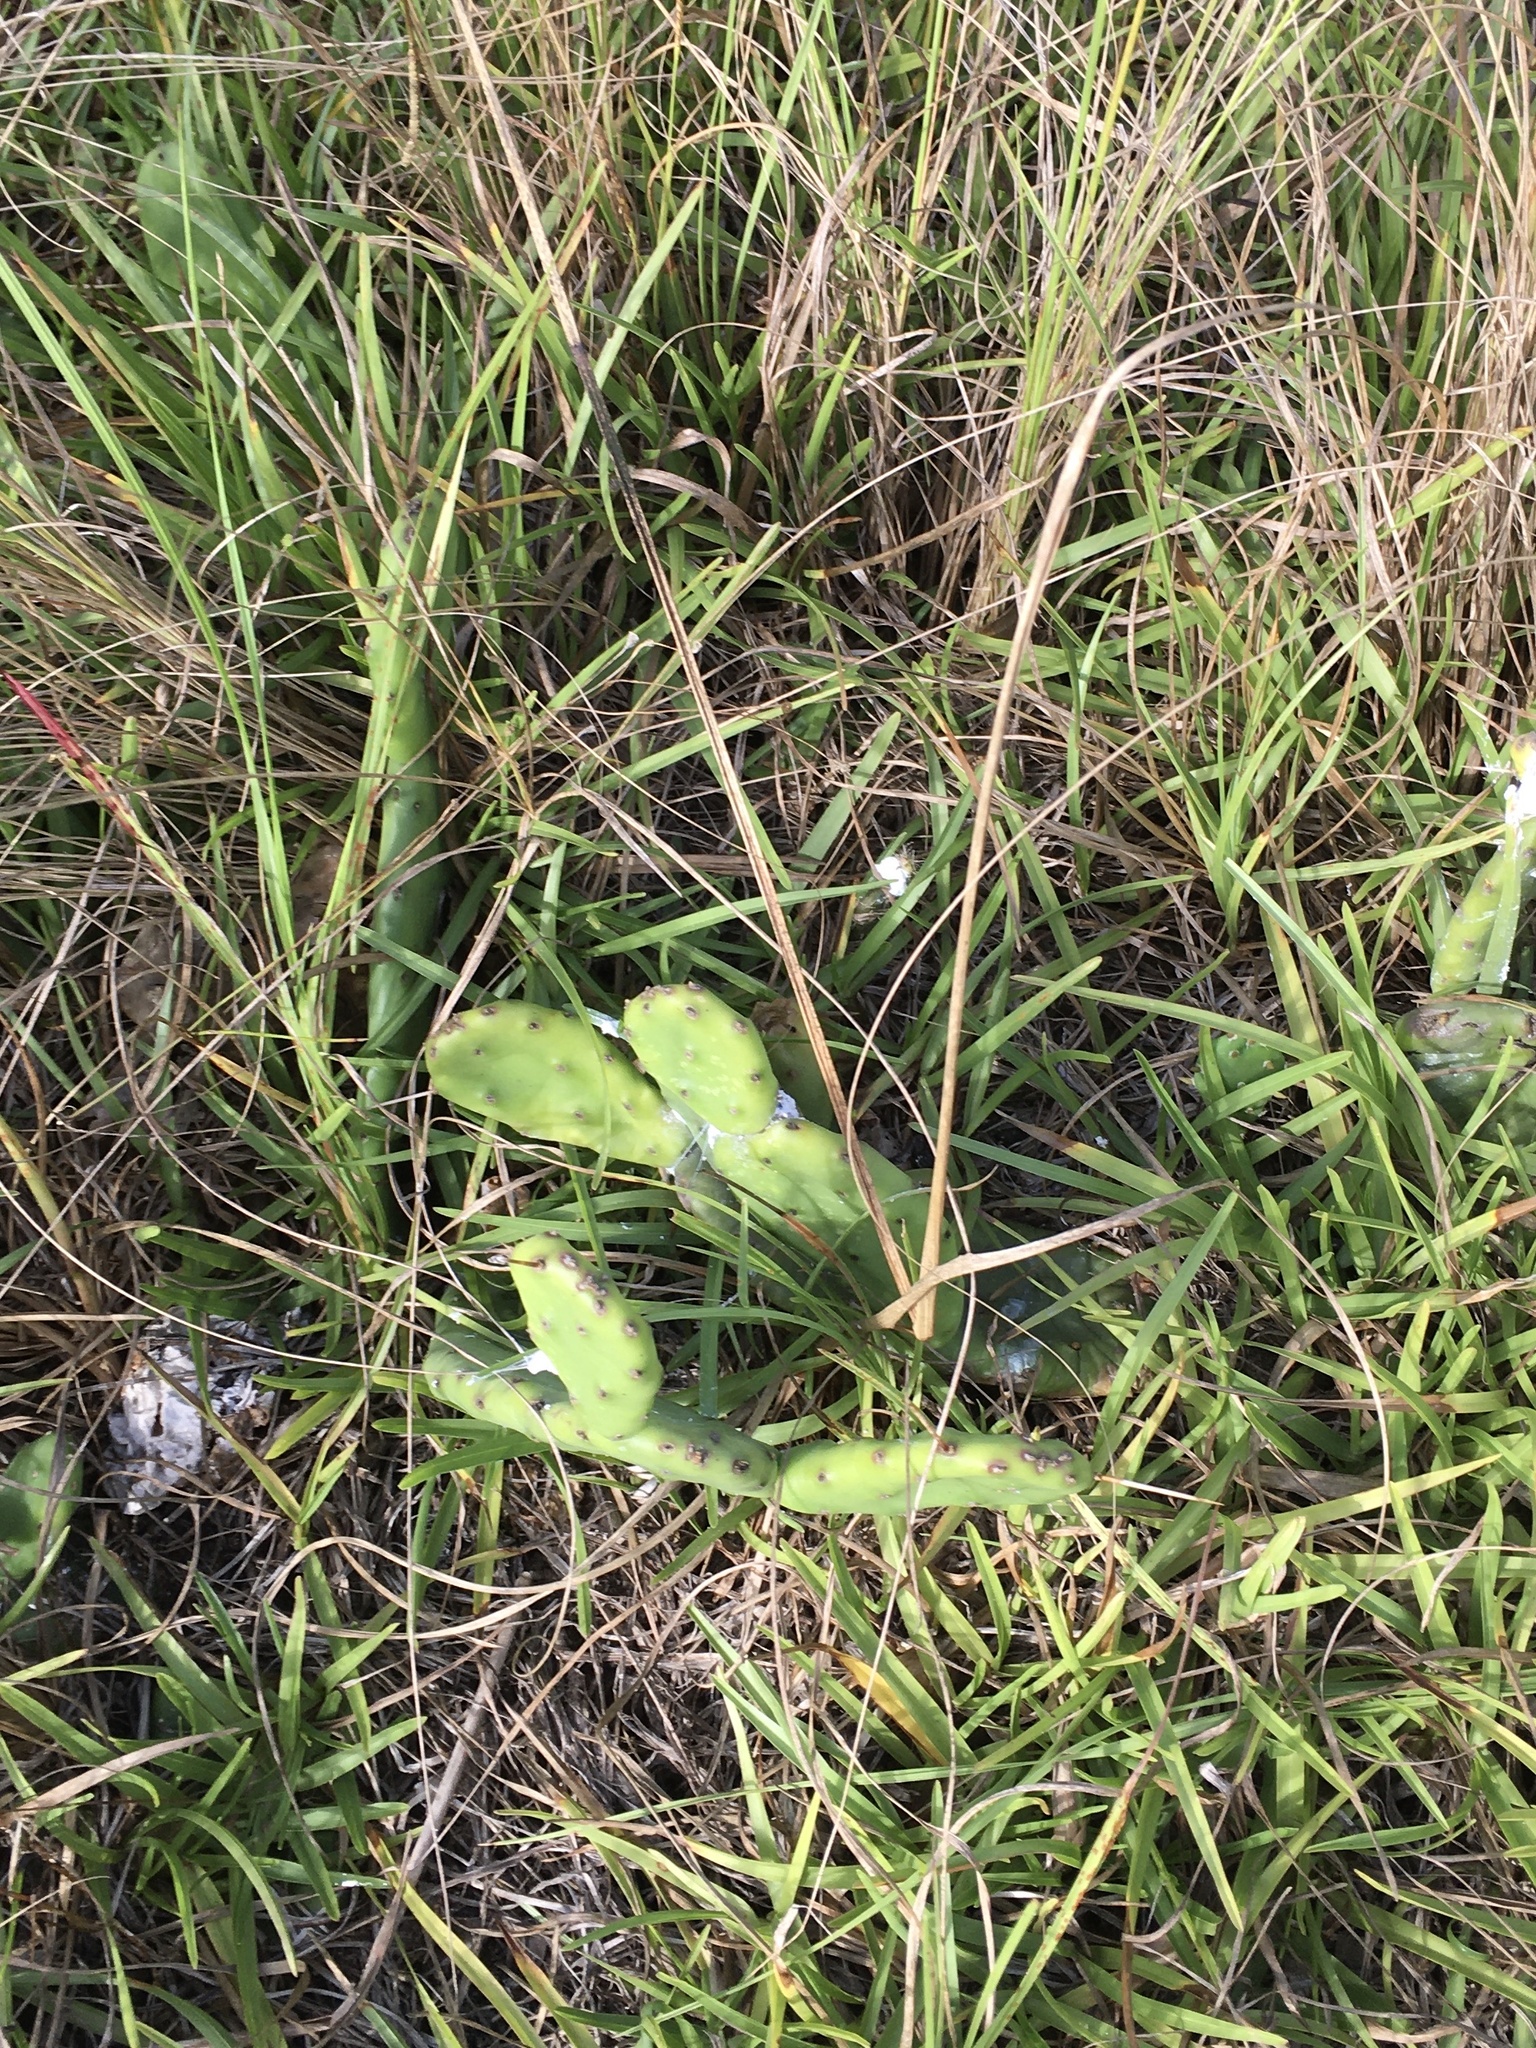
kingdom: Plantae
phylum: Tracheophyta
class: Magnoliopsida
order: Caryophyllales
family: Cactaceae
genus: Opuntia
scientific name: Opuntia mesacantha
